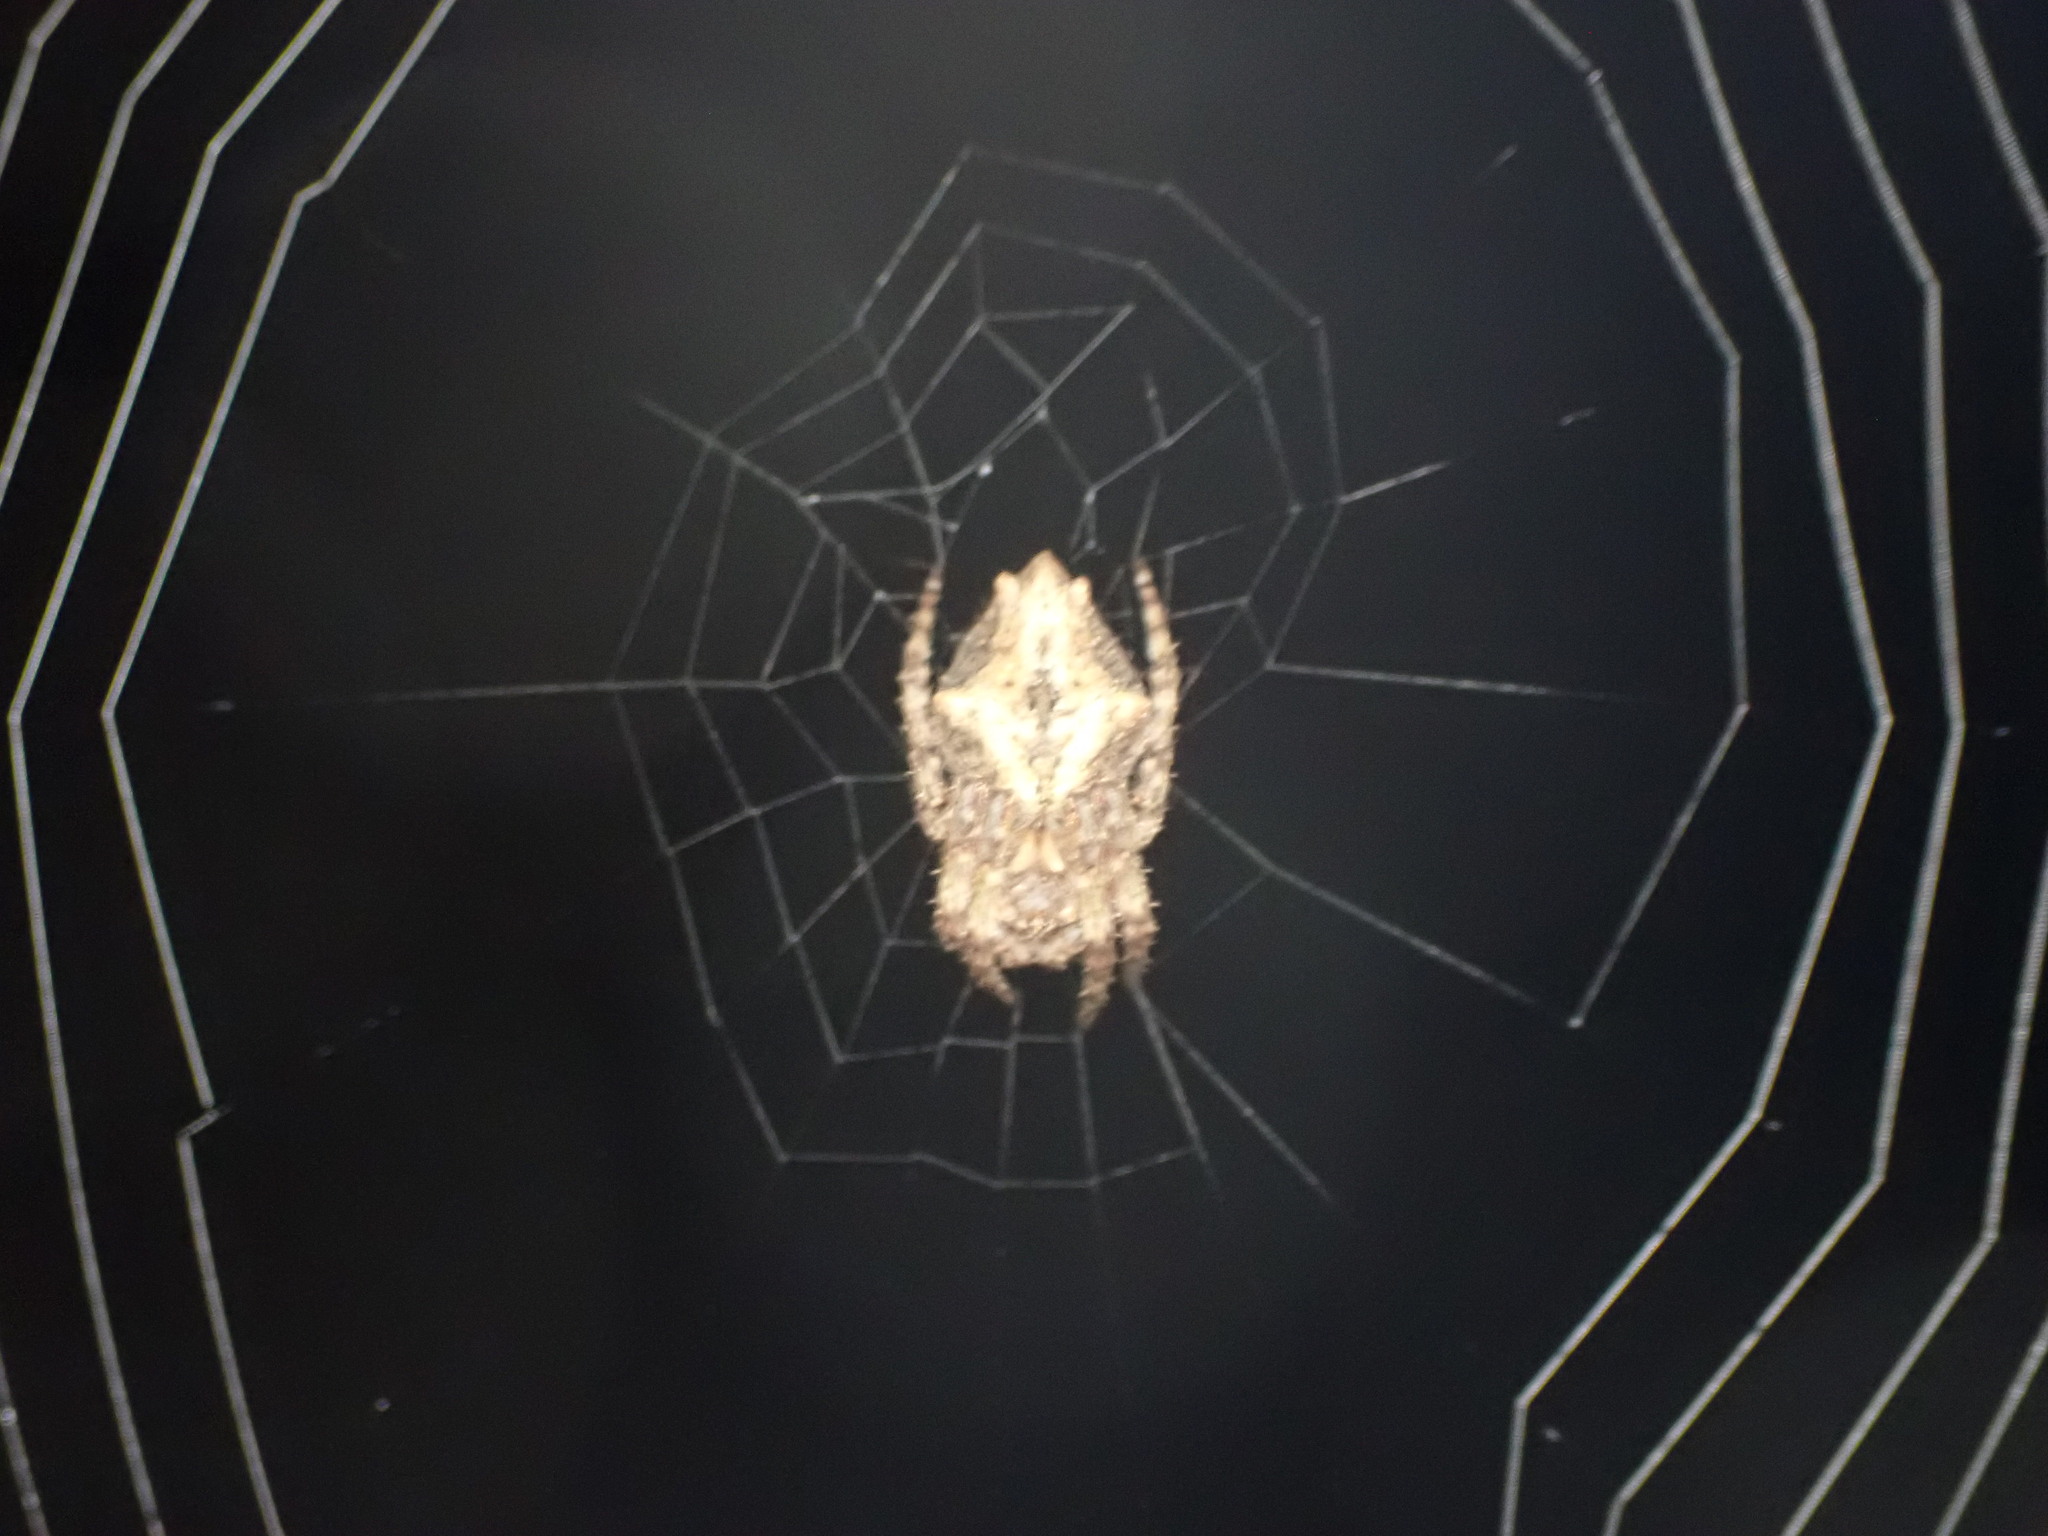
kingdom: Animalia
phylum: Arthropoda
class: Arachnida
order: Araneae
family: Araneidae
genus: Eriophora
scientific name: Eriophora pustulosa
